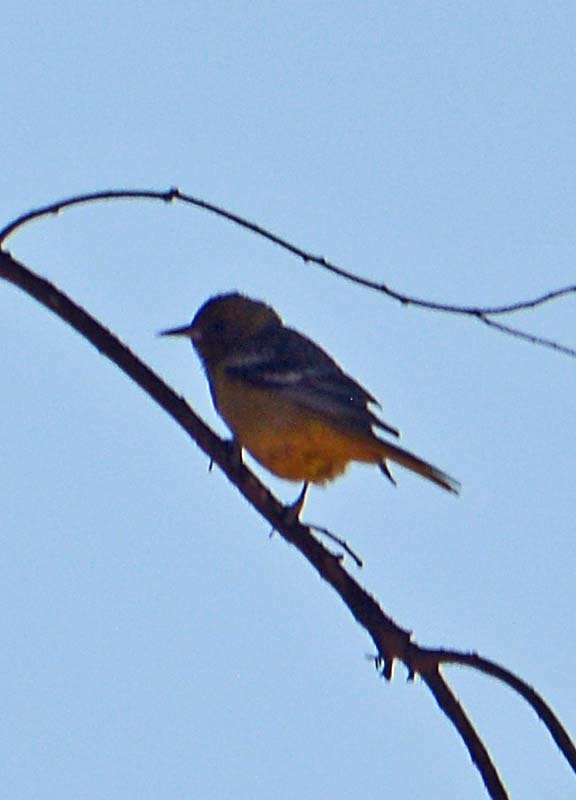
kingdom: Animalia
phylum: Chordata
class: Aves
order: Passeriformes
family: Tyrannidae
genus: Pyrocephalus
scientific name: Pyrocephalus rubinus
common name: Vermilion flycatcher
